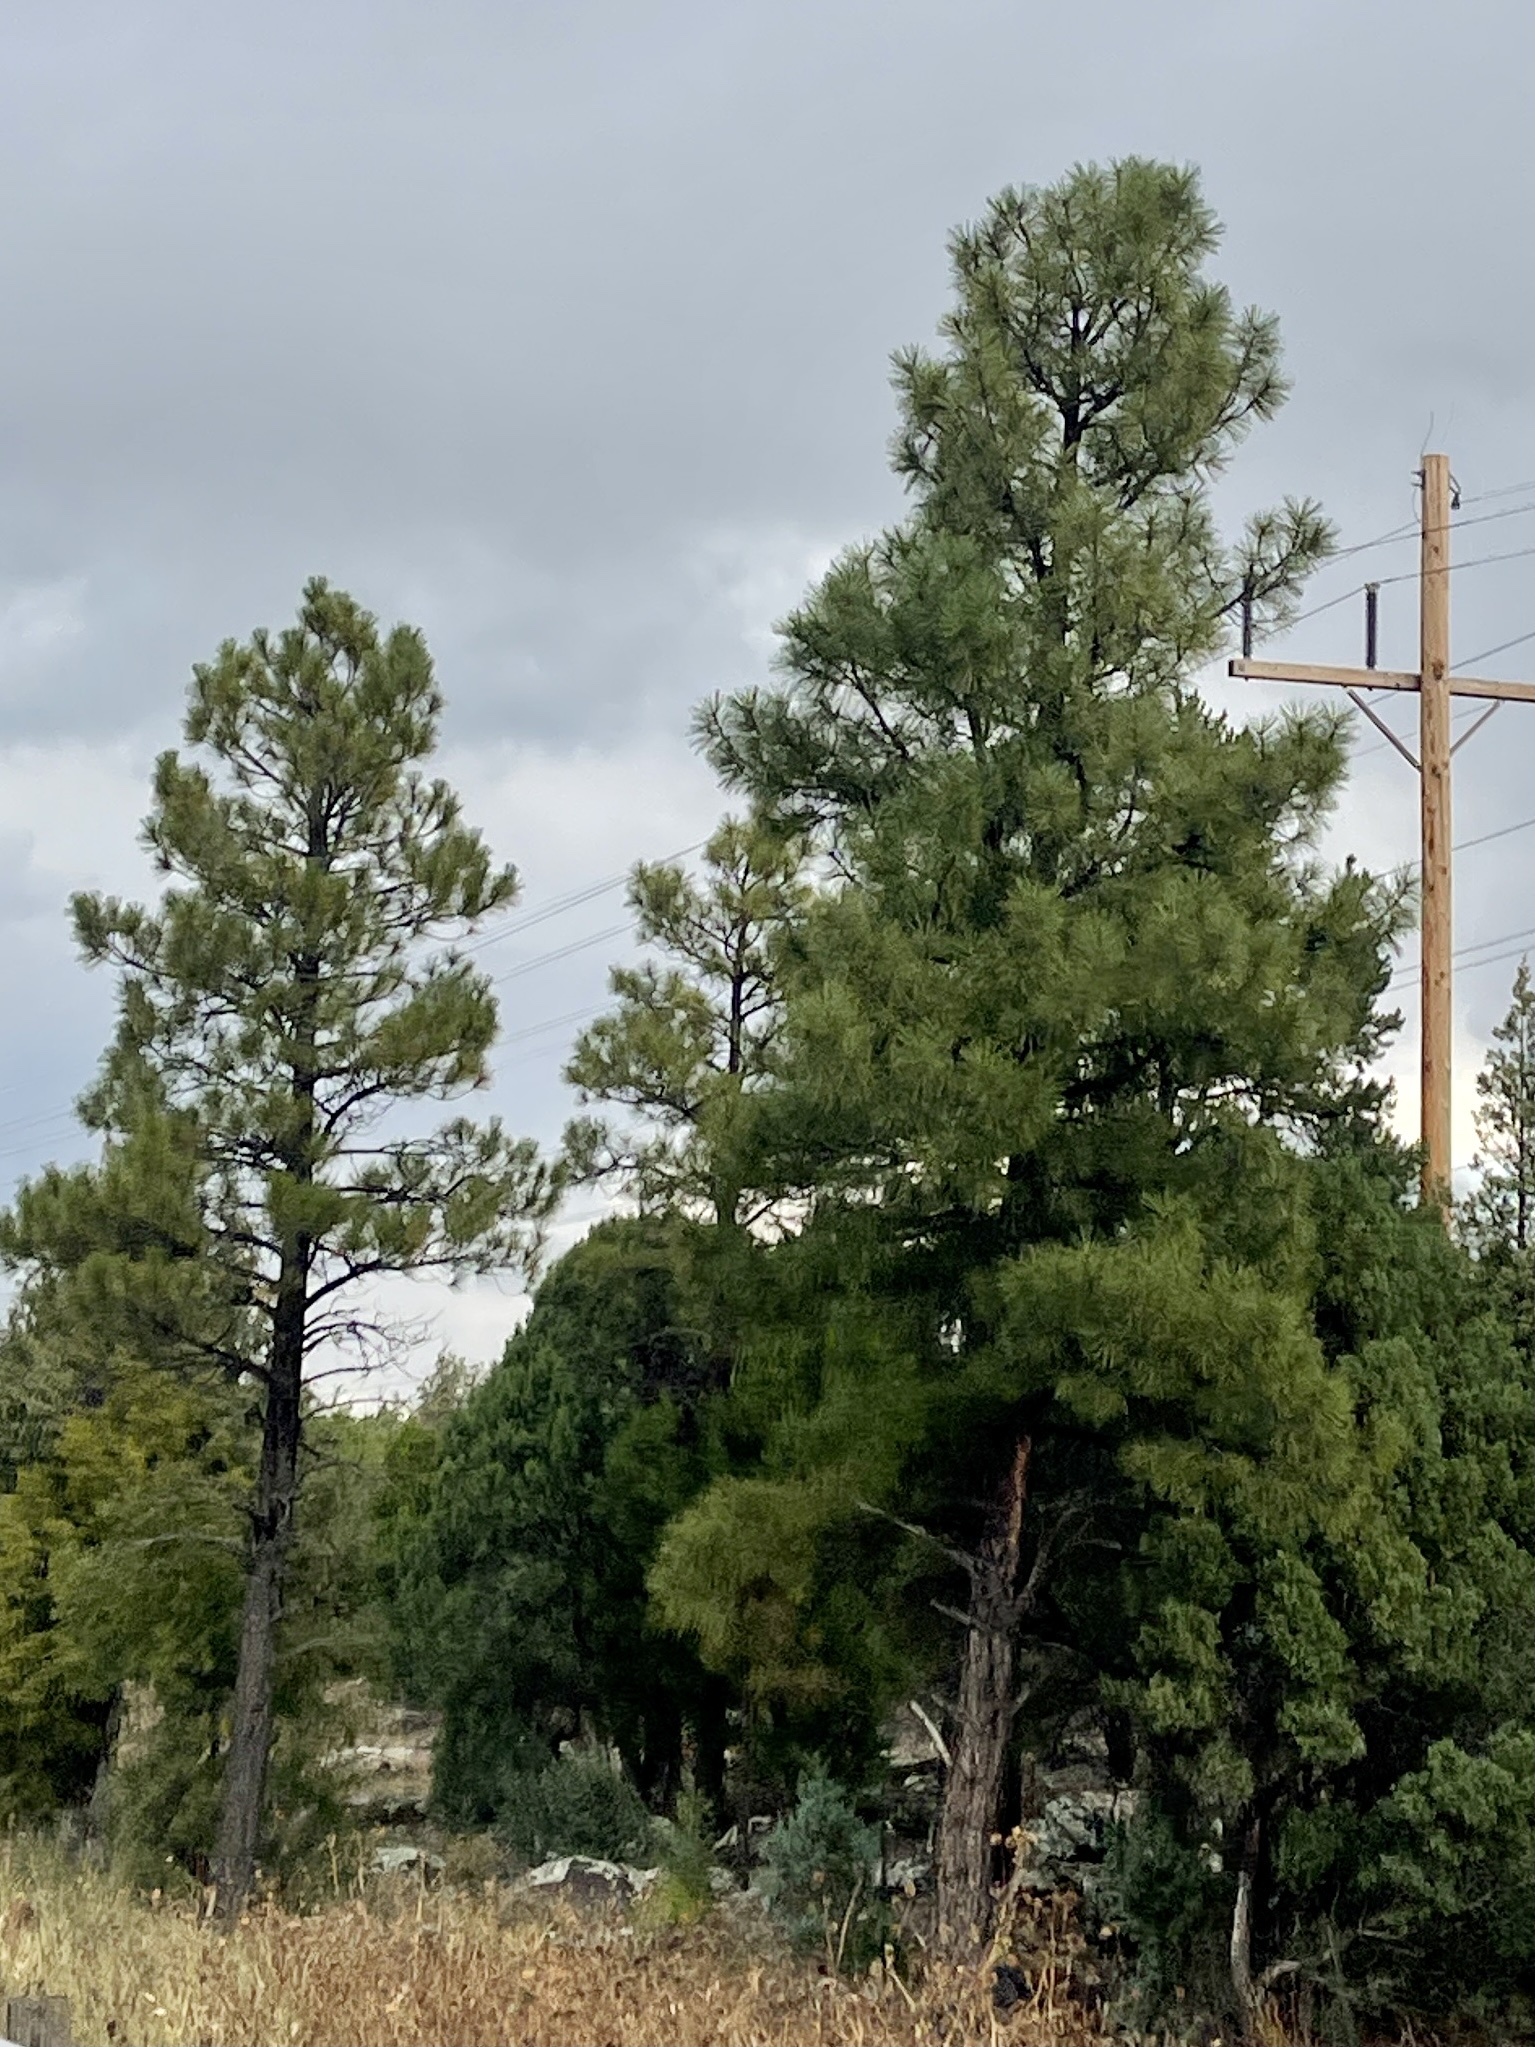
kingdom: Plantae
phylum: Tracheophyta
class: Pinopsida
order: Pinales
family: Pinaceae
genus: Pinus
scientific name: Pinus ponderosa
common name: Western yellow-pine
